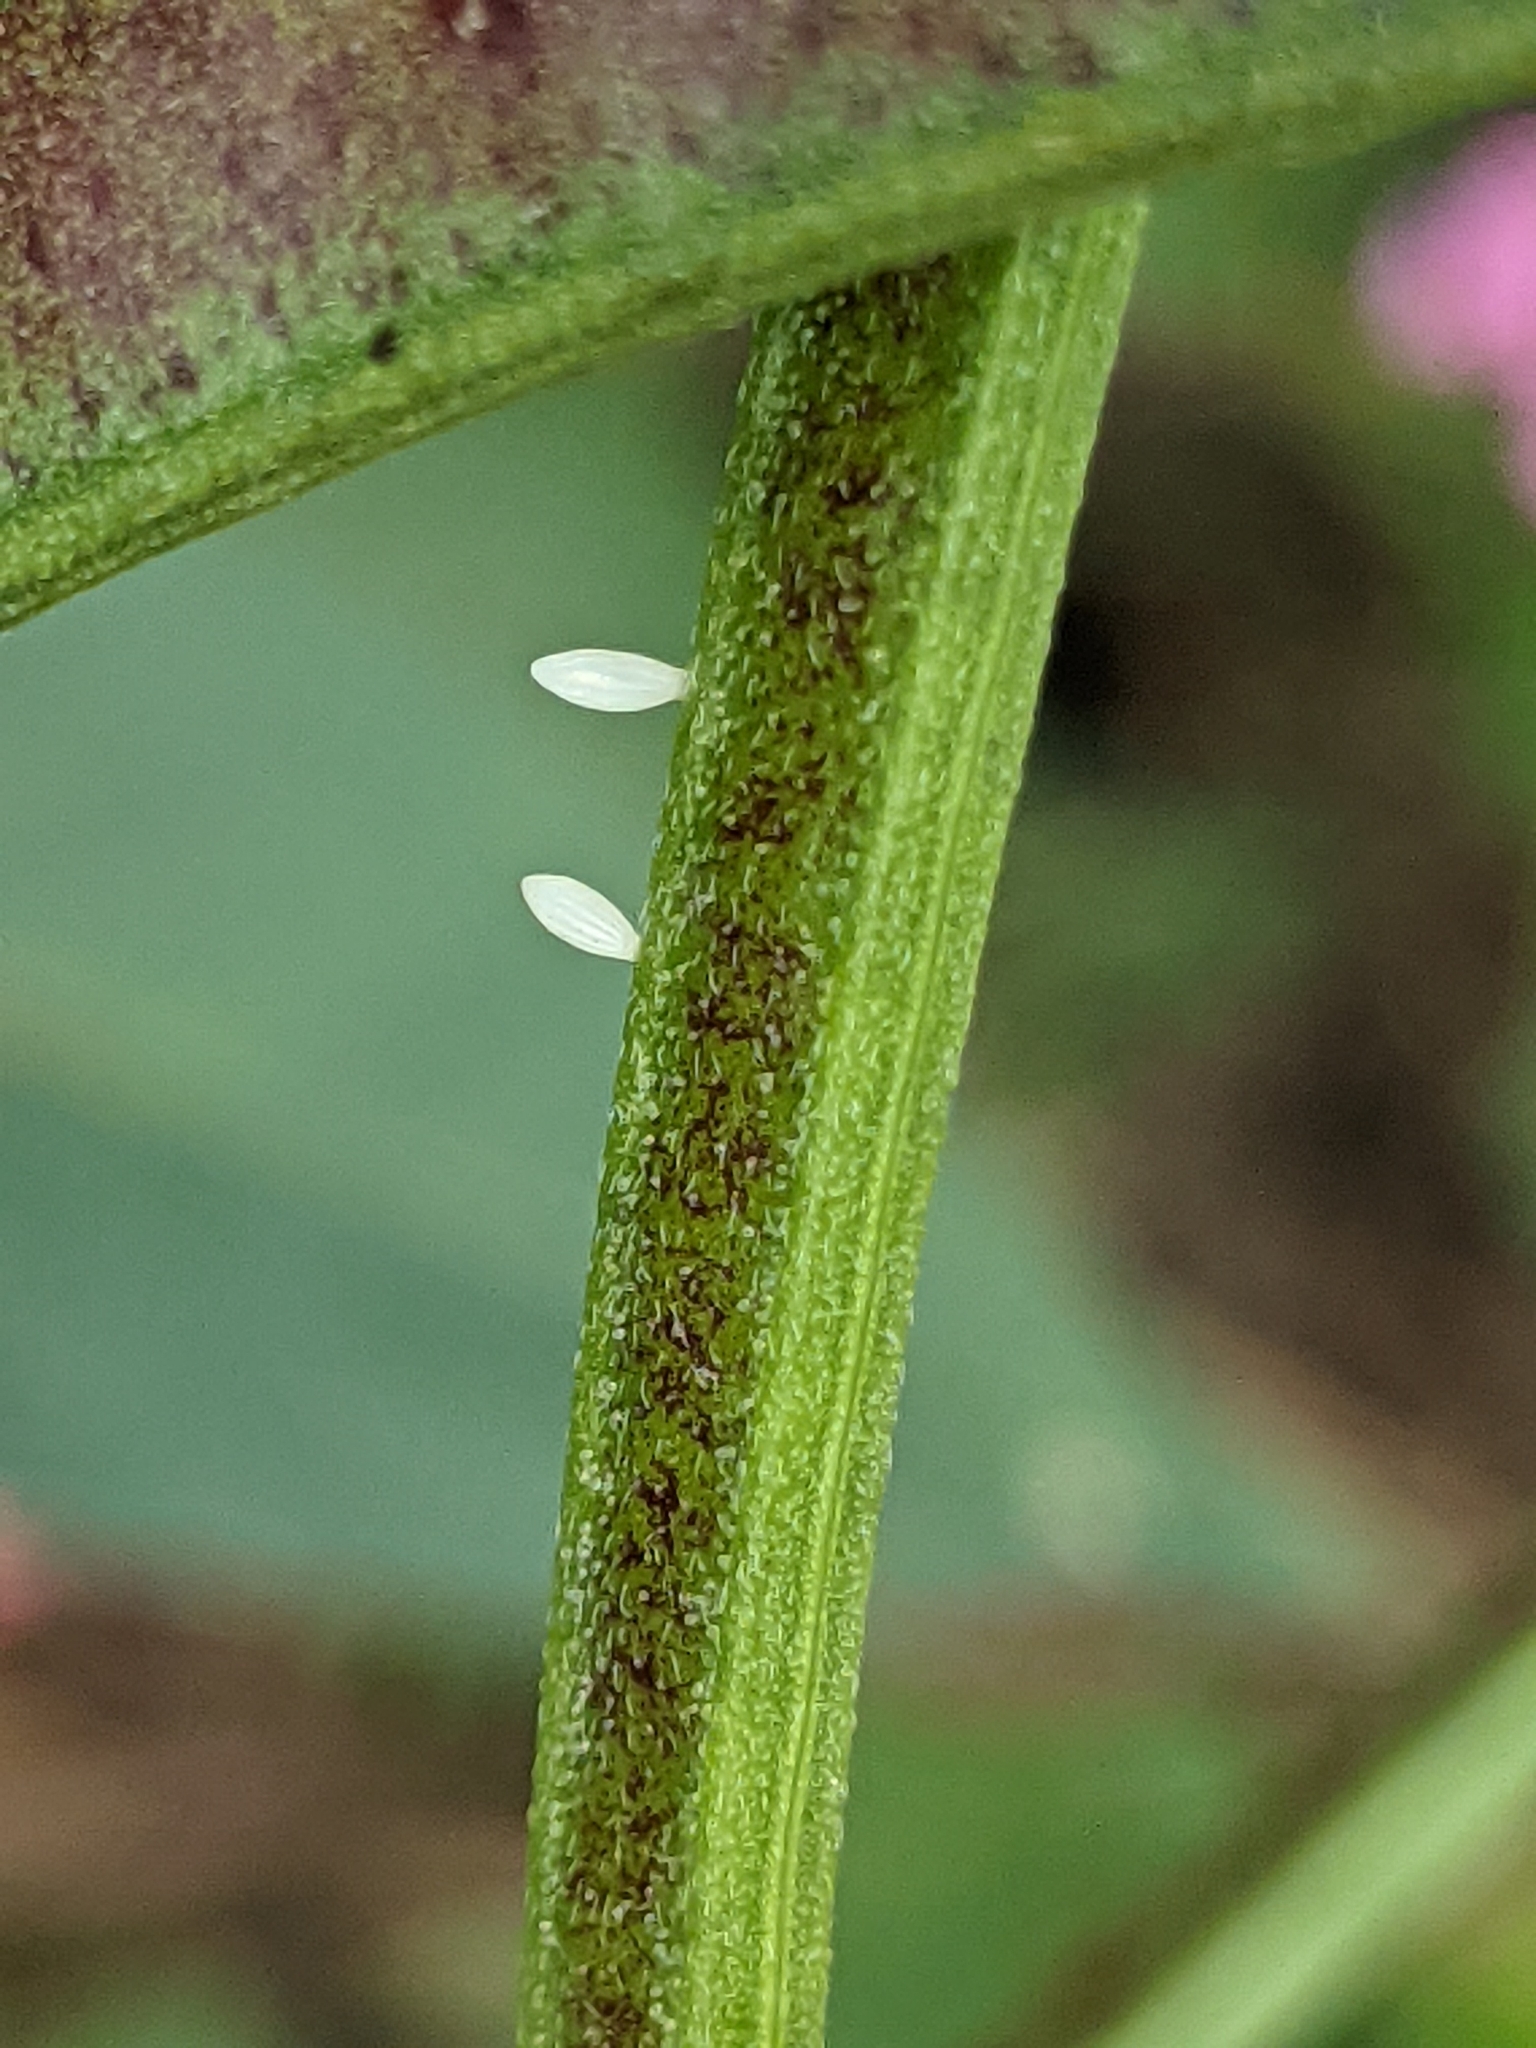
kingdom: Animalia
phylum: Arthropoda
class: Insecta
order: Lepidoptera
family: Pieridae
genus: Eurema
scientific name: Eurema hecabe
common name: Pale grass yellow
